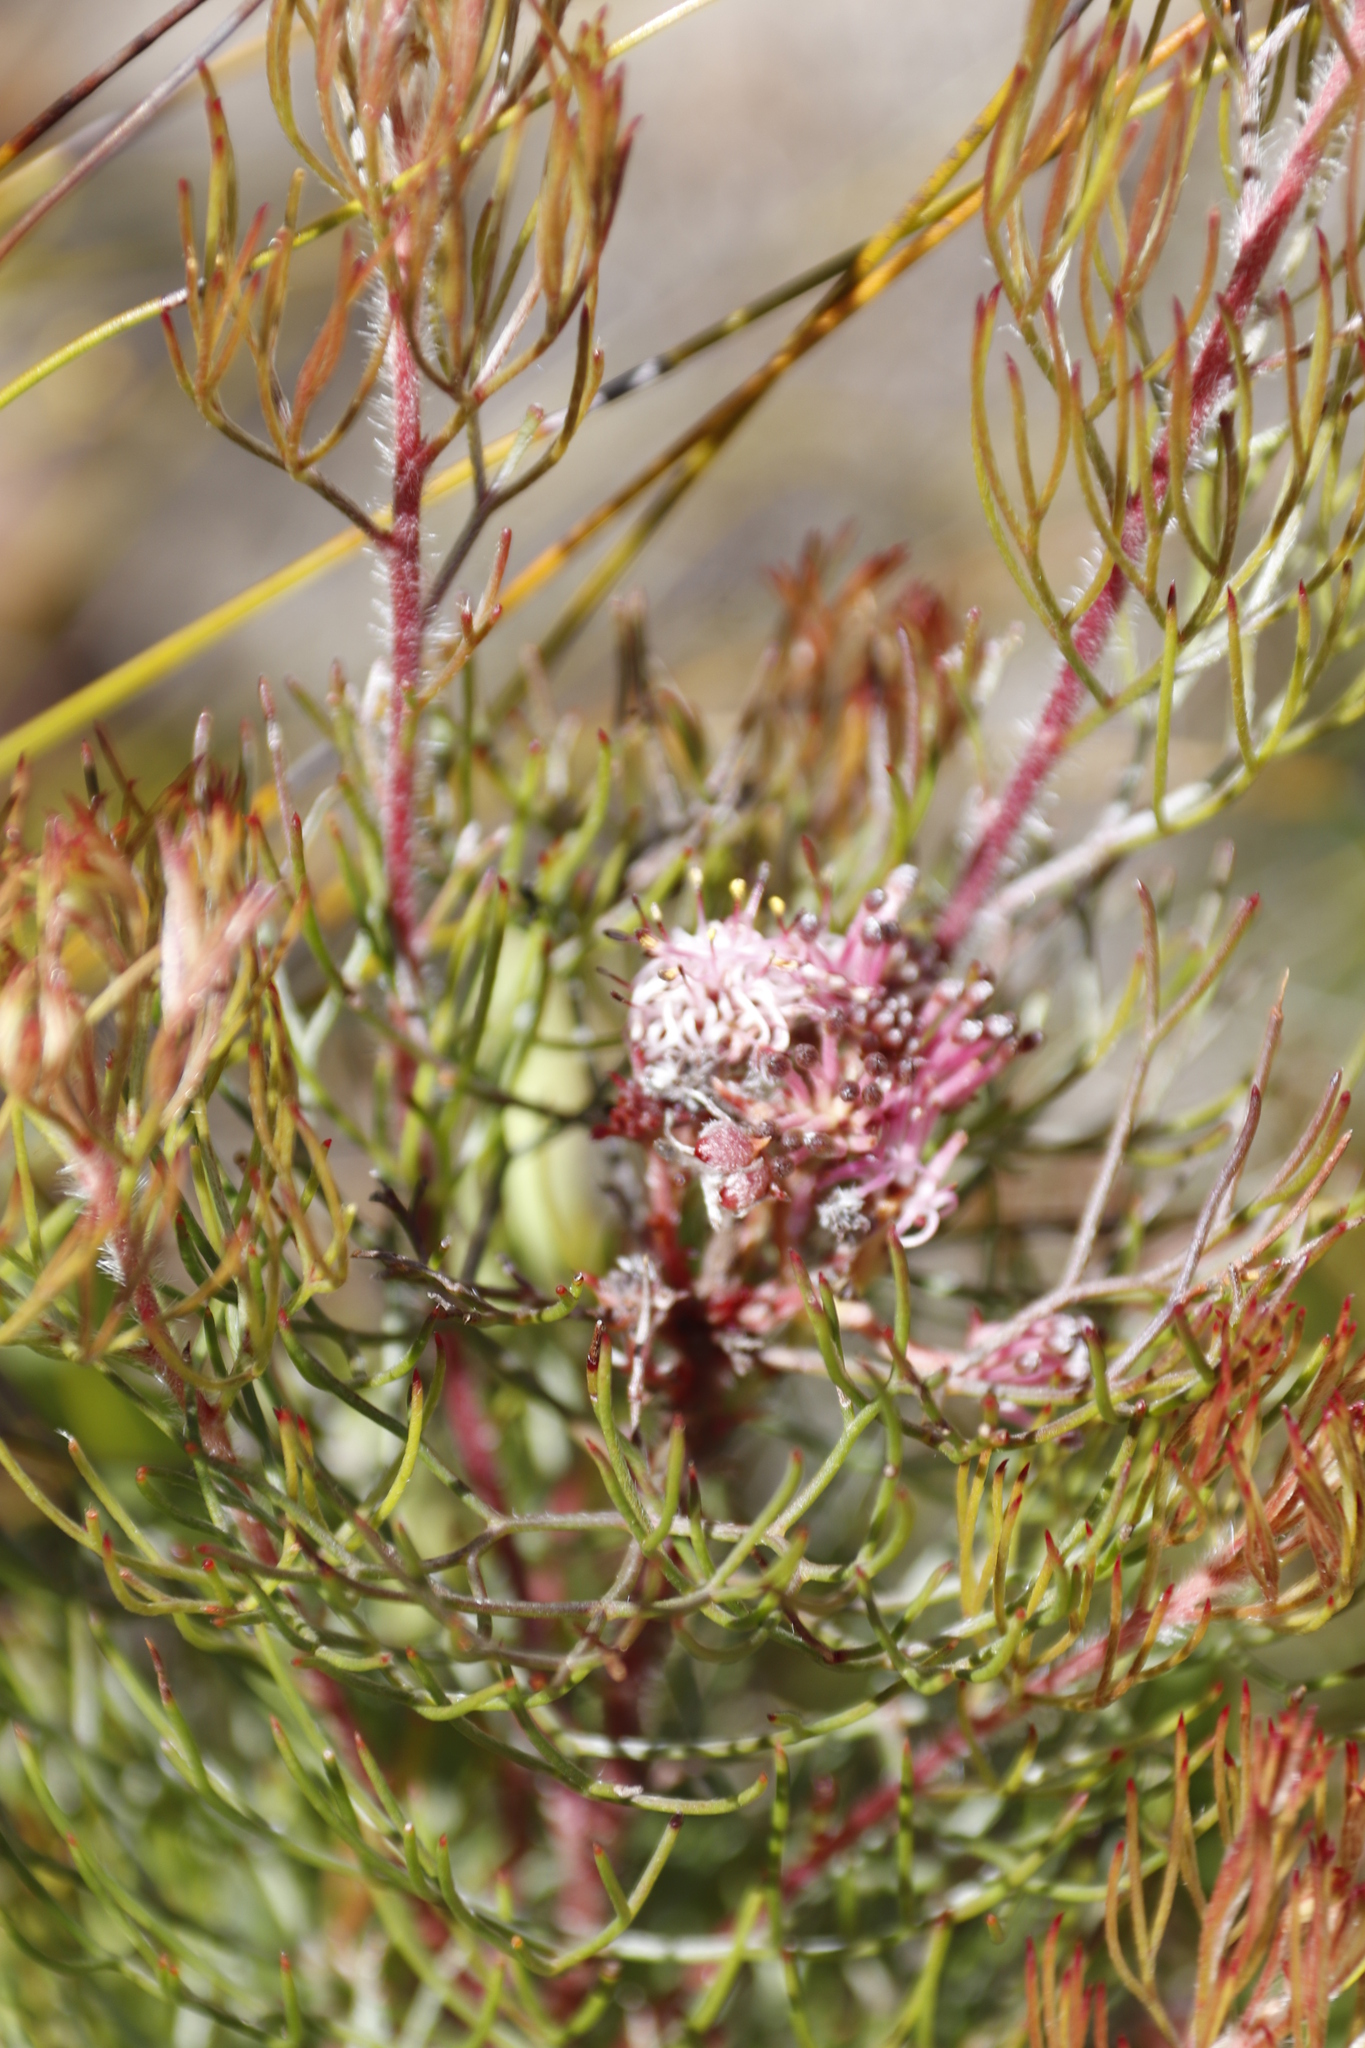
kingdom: Plantae
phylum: Tracheophyta
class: Magnoliopsida
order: Proteales
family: Proteaceae
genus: Serruria
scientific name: Serruria fasciflora
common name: Common pin spiderhead
